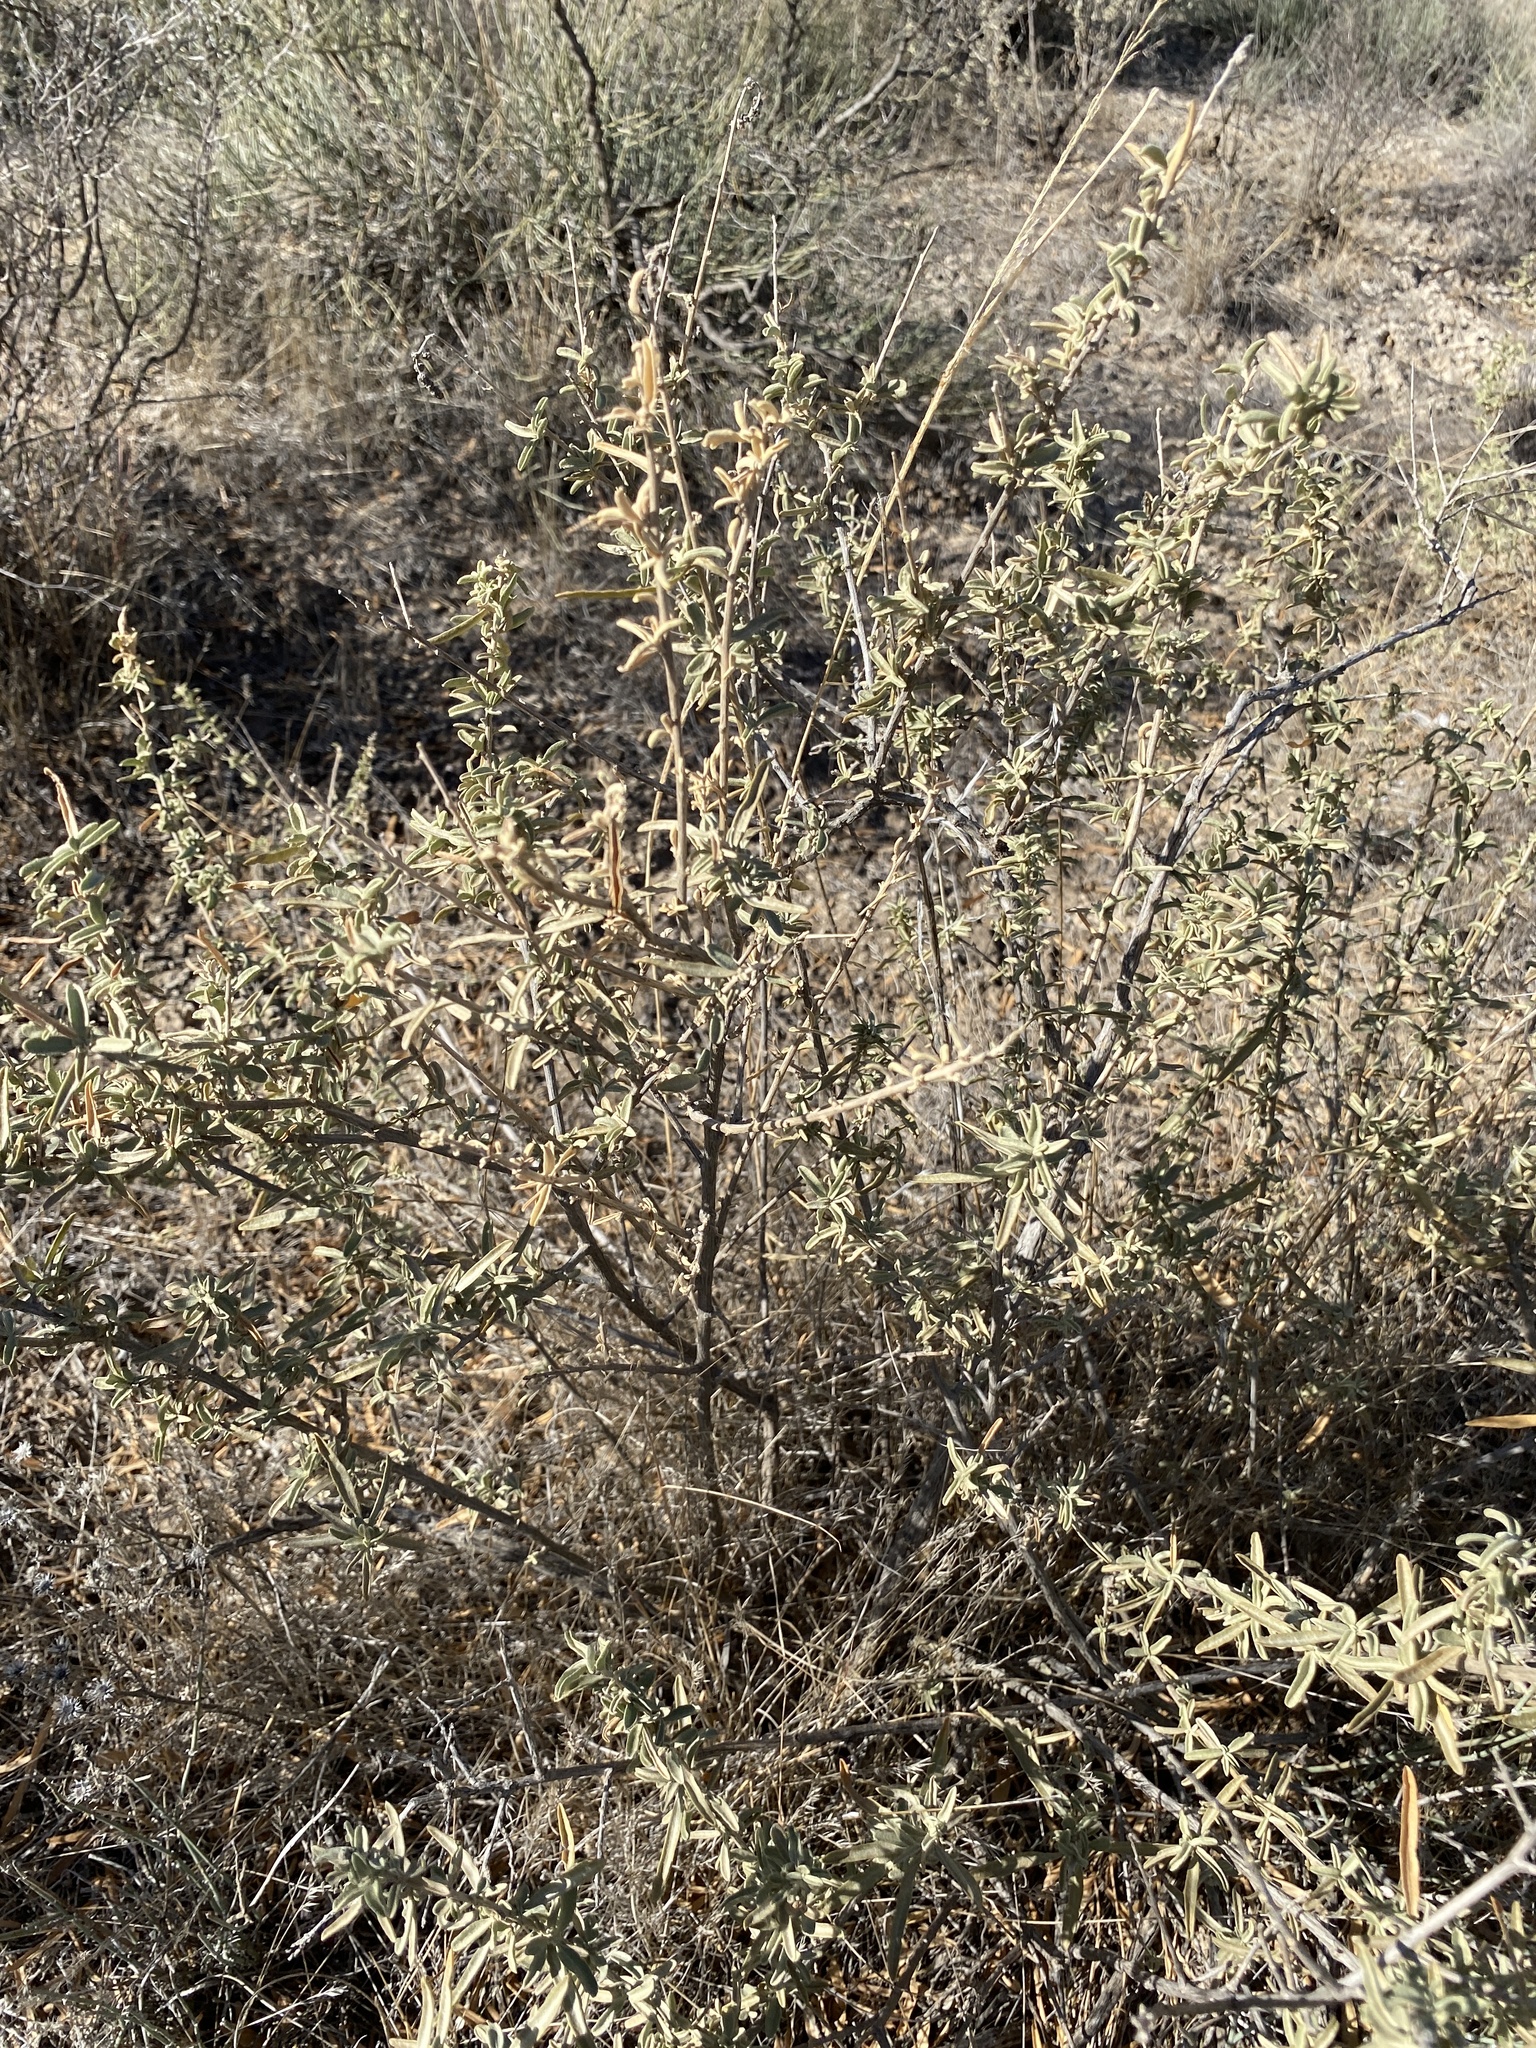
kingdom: Plantae
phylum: Tracheophyta
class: Magnoliopsida
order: Caryophyllales
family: Amaranthaceae
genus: Atriplex
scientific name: Atriplex canescens
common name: Four-wing saltbush
